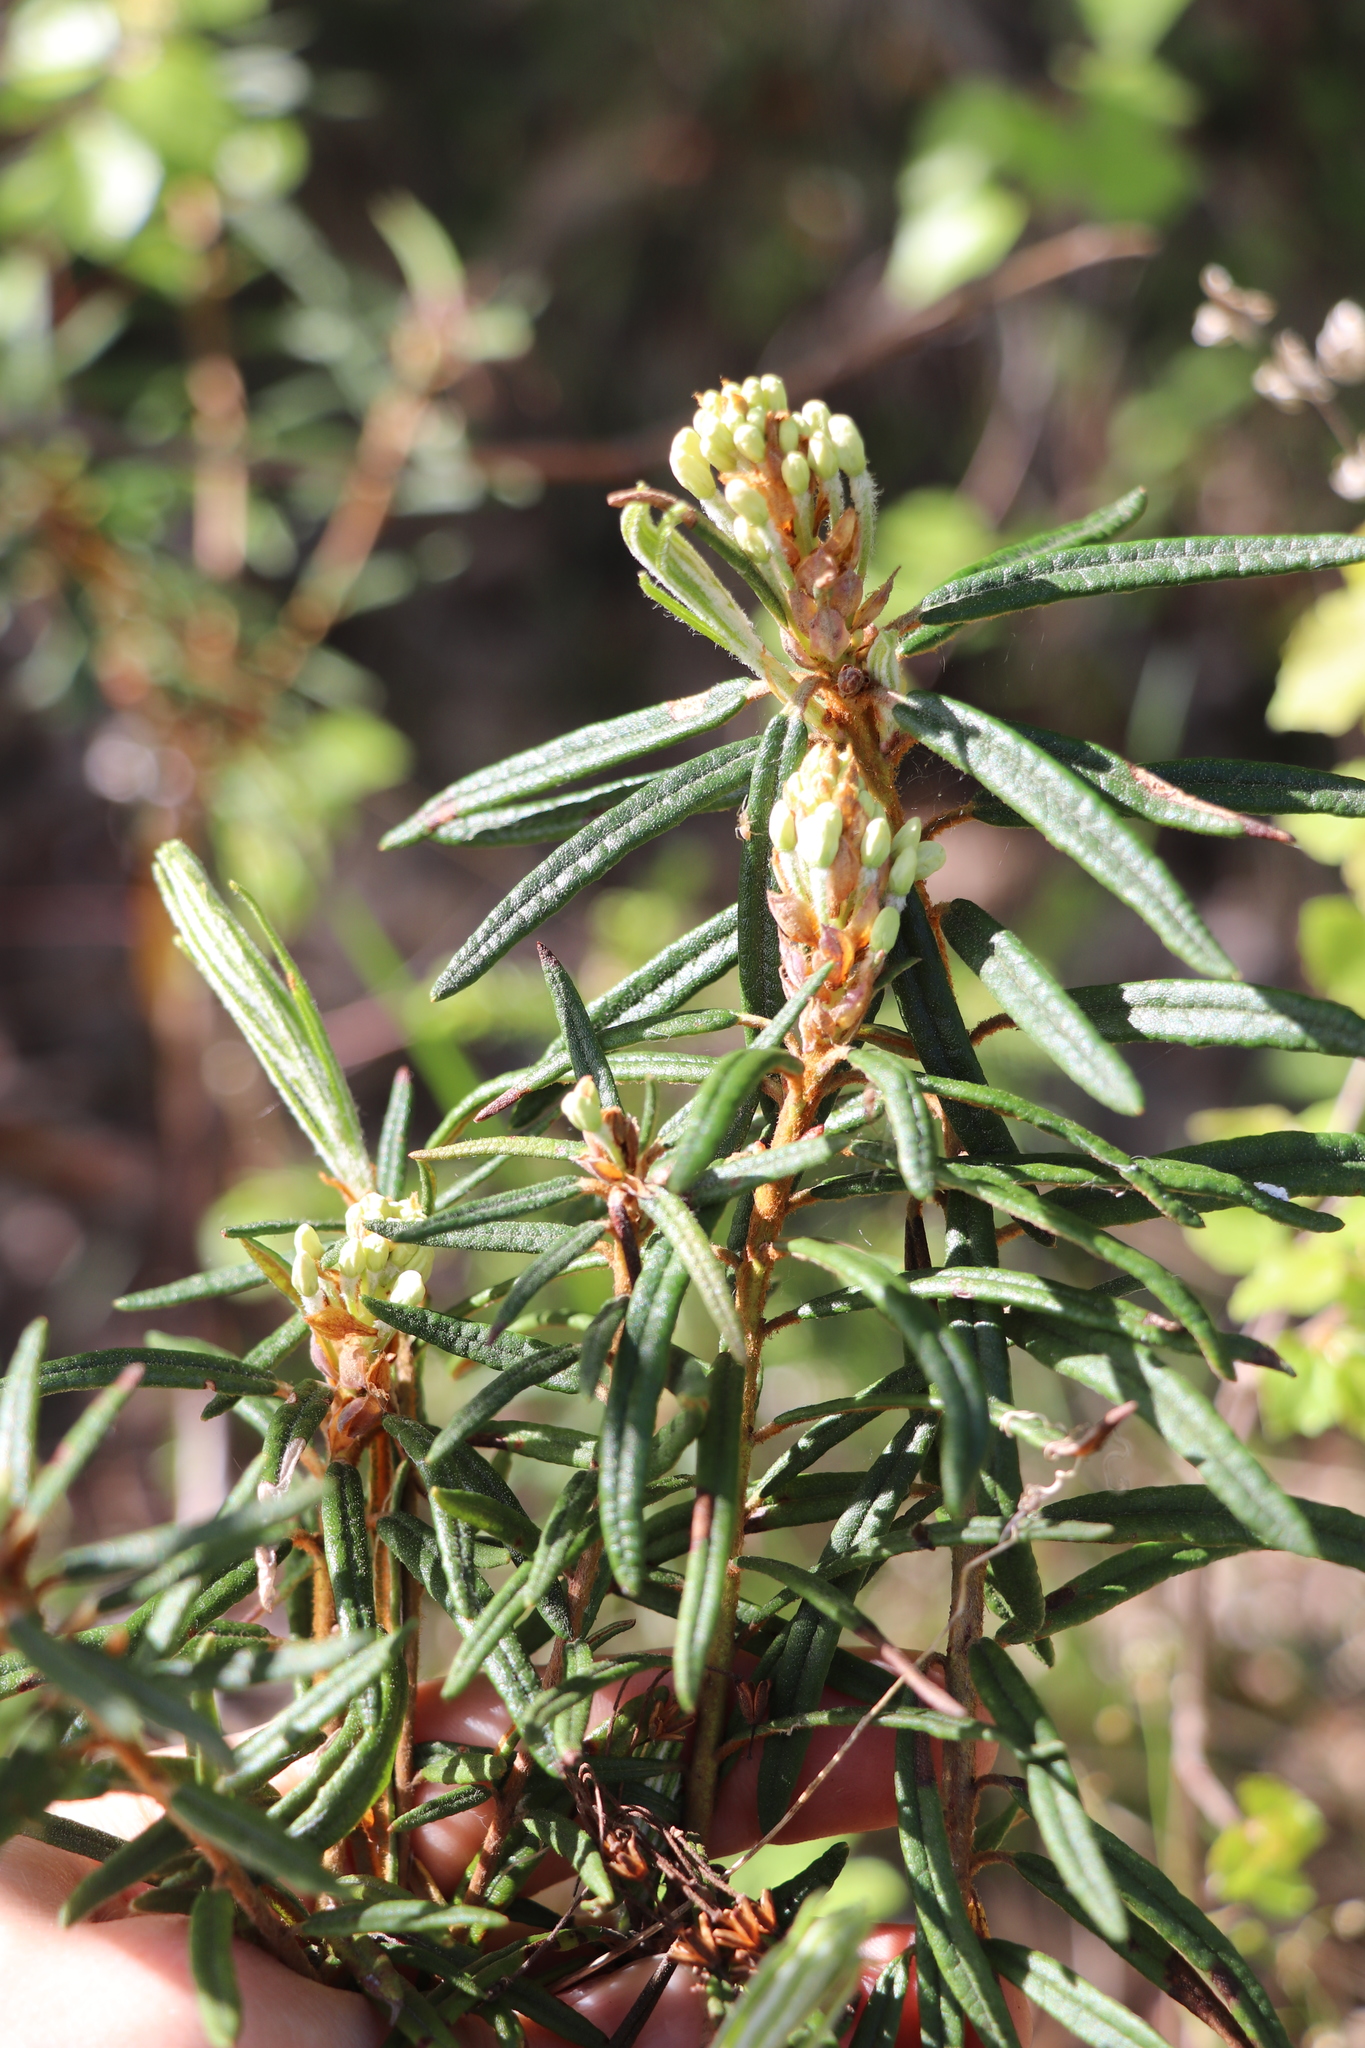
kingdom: Plantae
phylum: Tracheophyta
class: Magnoliopsida
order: Ericales
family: Ericaceae
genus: Rhododendron
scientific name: Rhododendron tomentosum
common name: Marsh labrador tea
